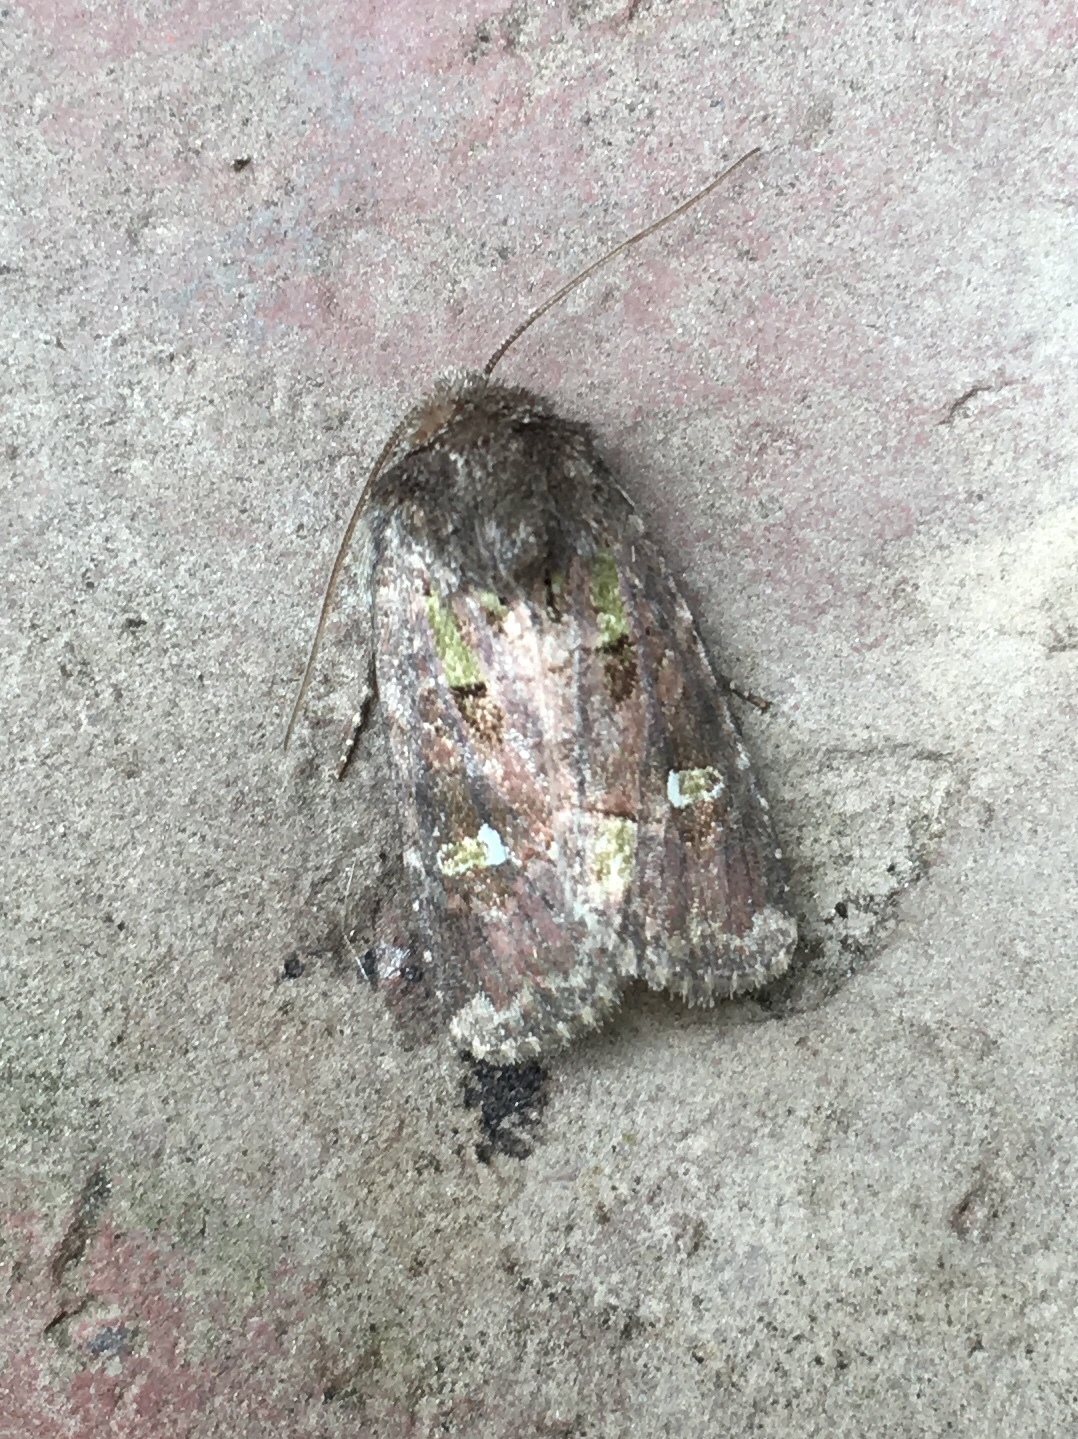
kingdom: Animalia
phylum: Arthropoda
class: Insecta
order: Lepidoptera
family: Noctuidae
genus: Lacinipolia
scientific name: Lacinipolia renigera
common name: Kidney-spotted minor
